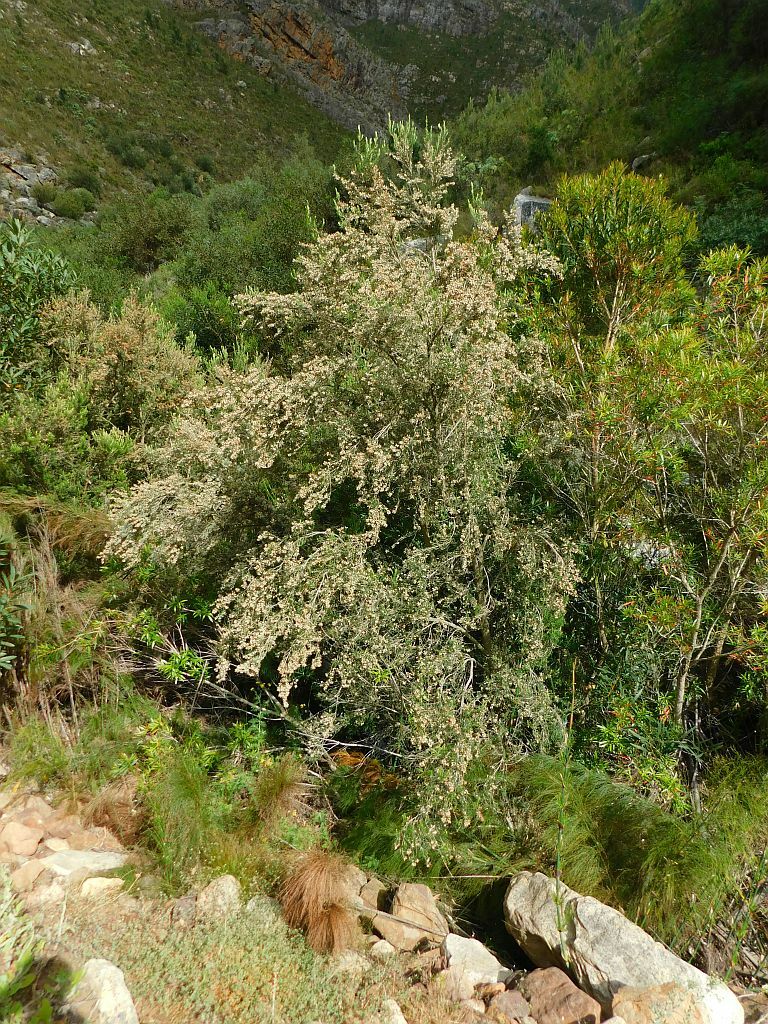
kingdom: Plantae
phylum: Tracheophyta
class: Magnoliopsida
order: Ericales
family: Ericaceae
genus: Erica
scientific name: Erica caffra
